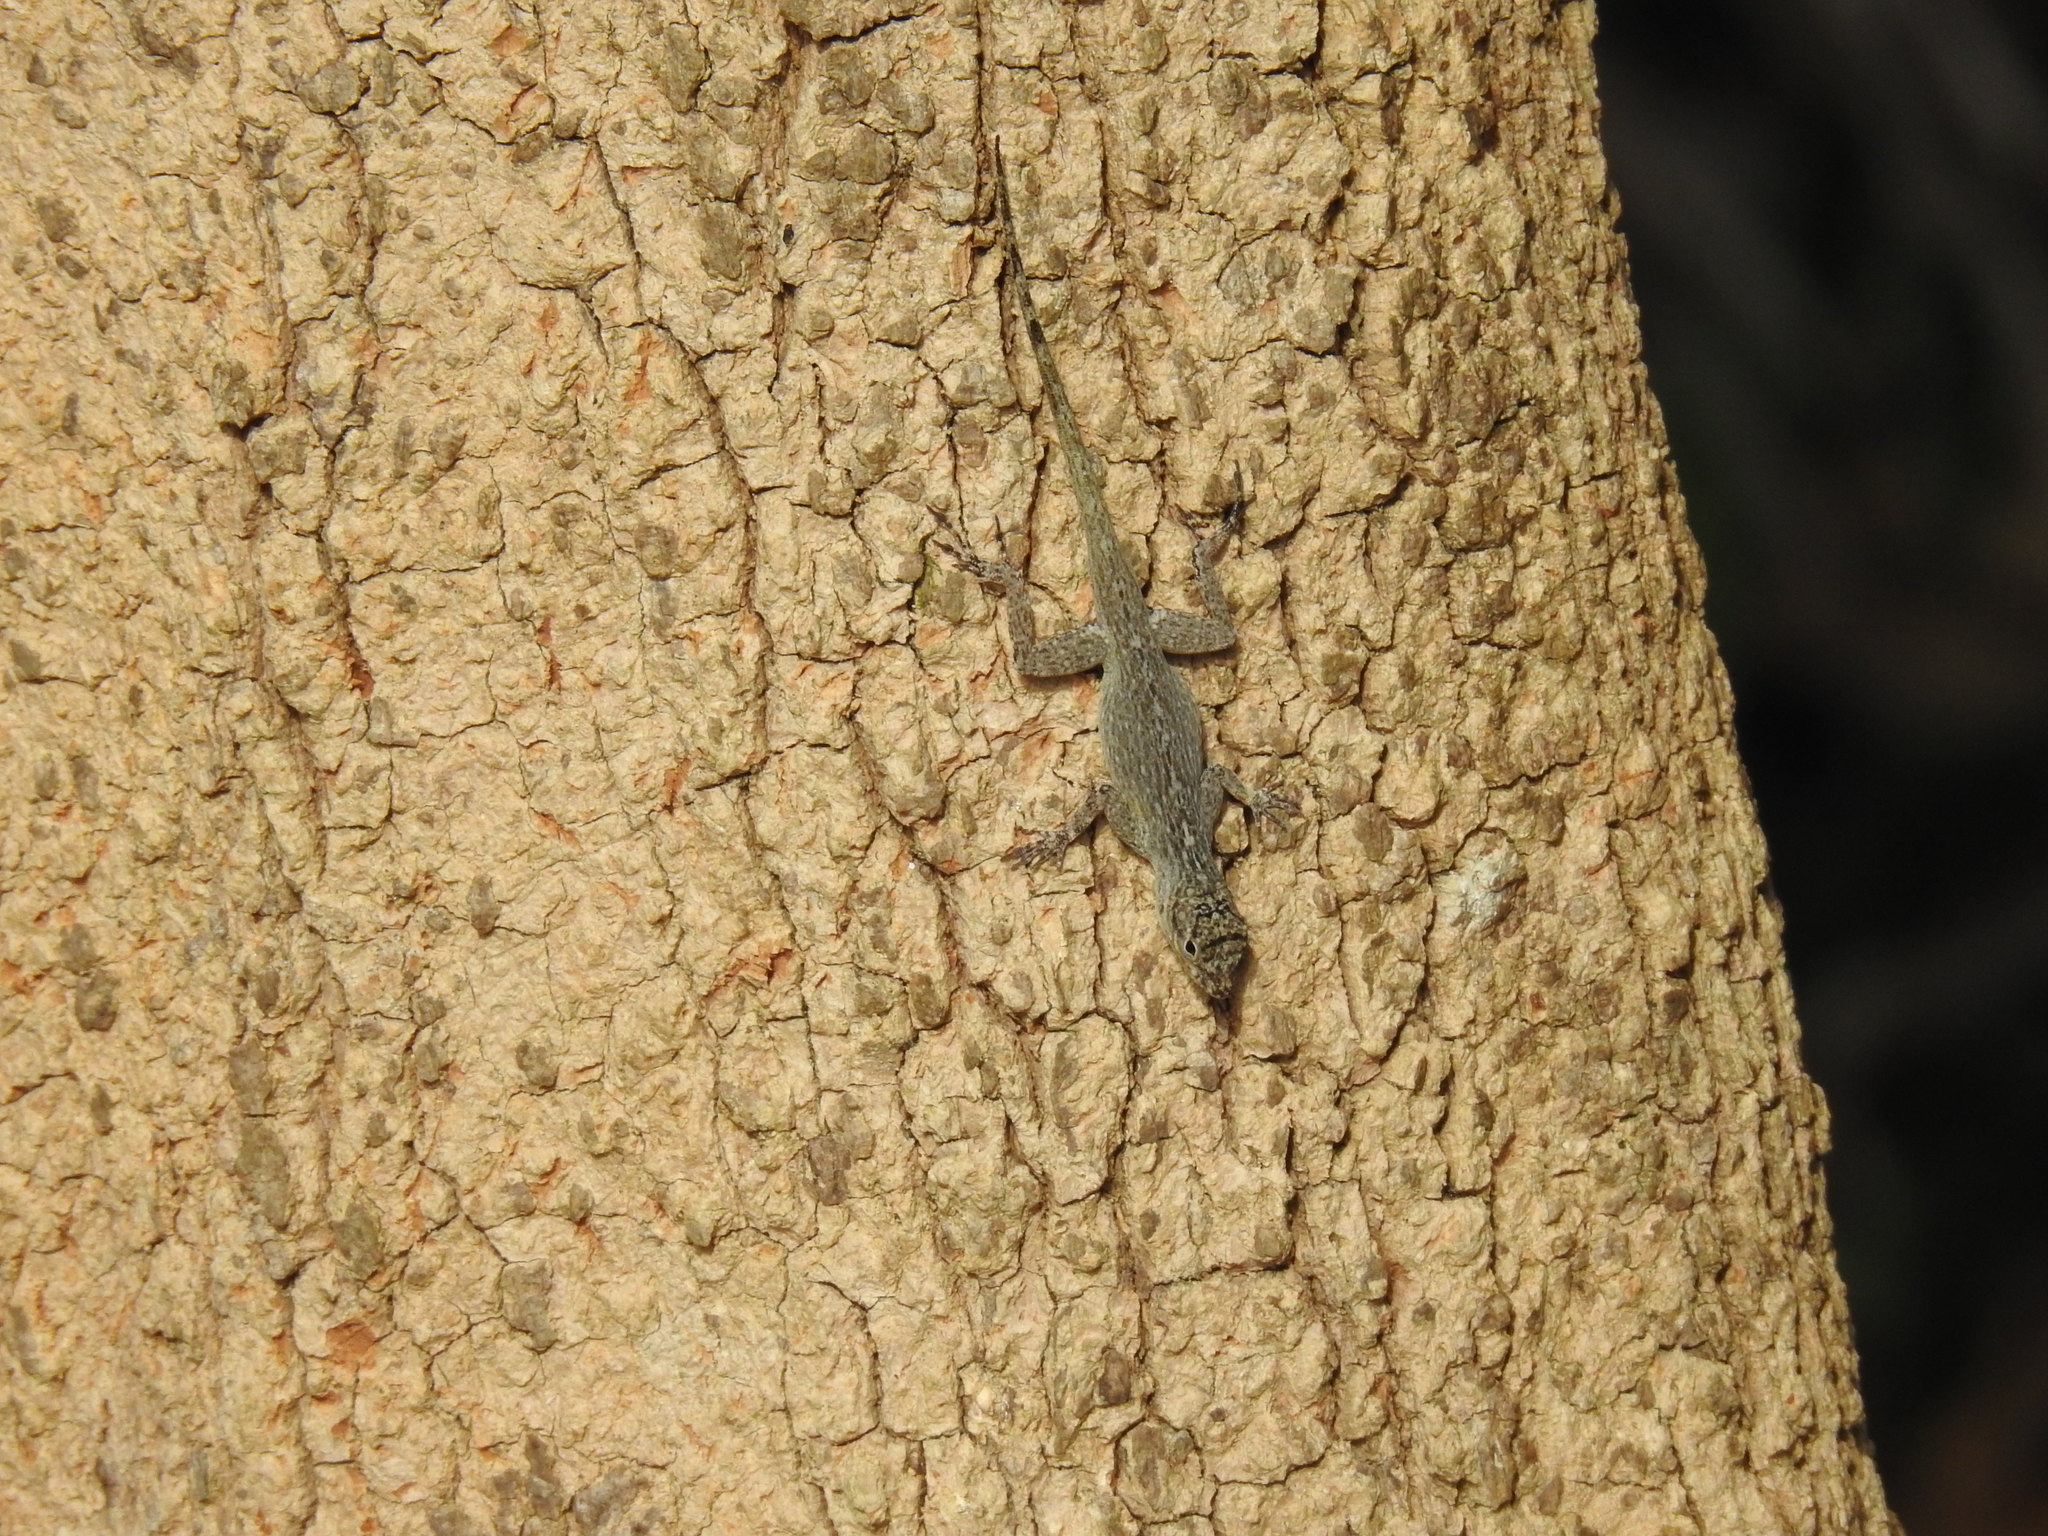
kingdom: Animalia
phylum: Chordata
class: Squamata
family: Dactyloidae
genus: Anolis
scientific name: Anolis distichus
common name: Bark anole
